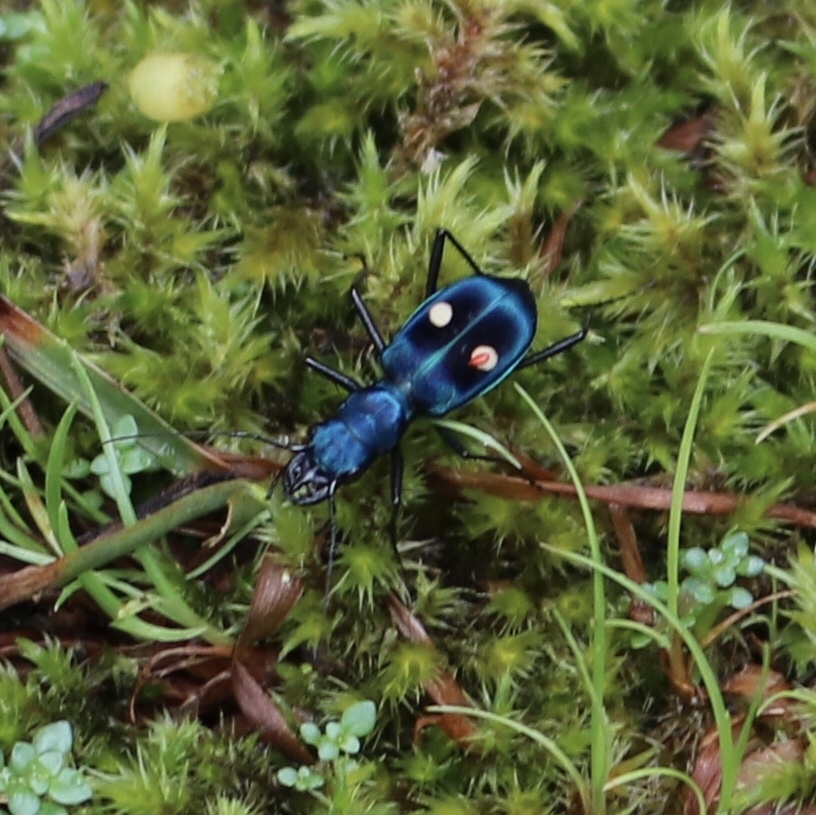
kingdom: Animalia
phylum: Arthropoda
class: Insecta
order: Coleoptera
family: Carabidae
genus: Pseudoxycheila
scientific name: Pseudoxycheila tarsalis
